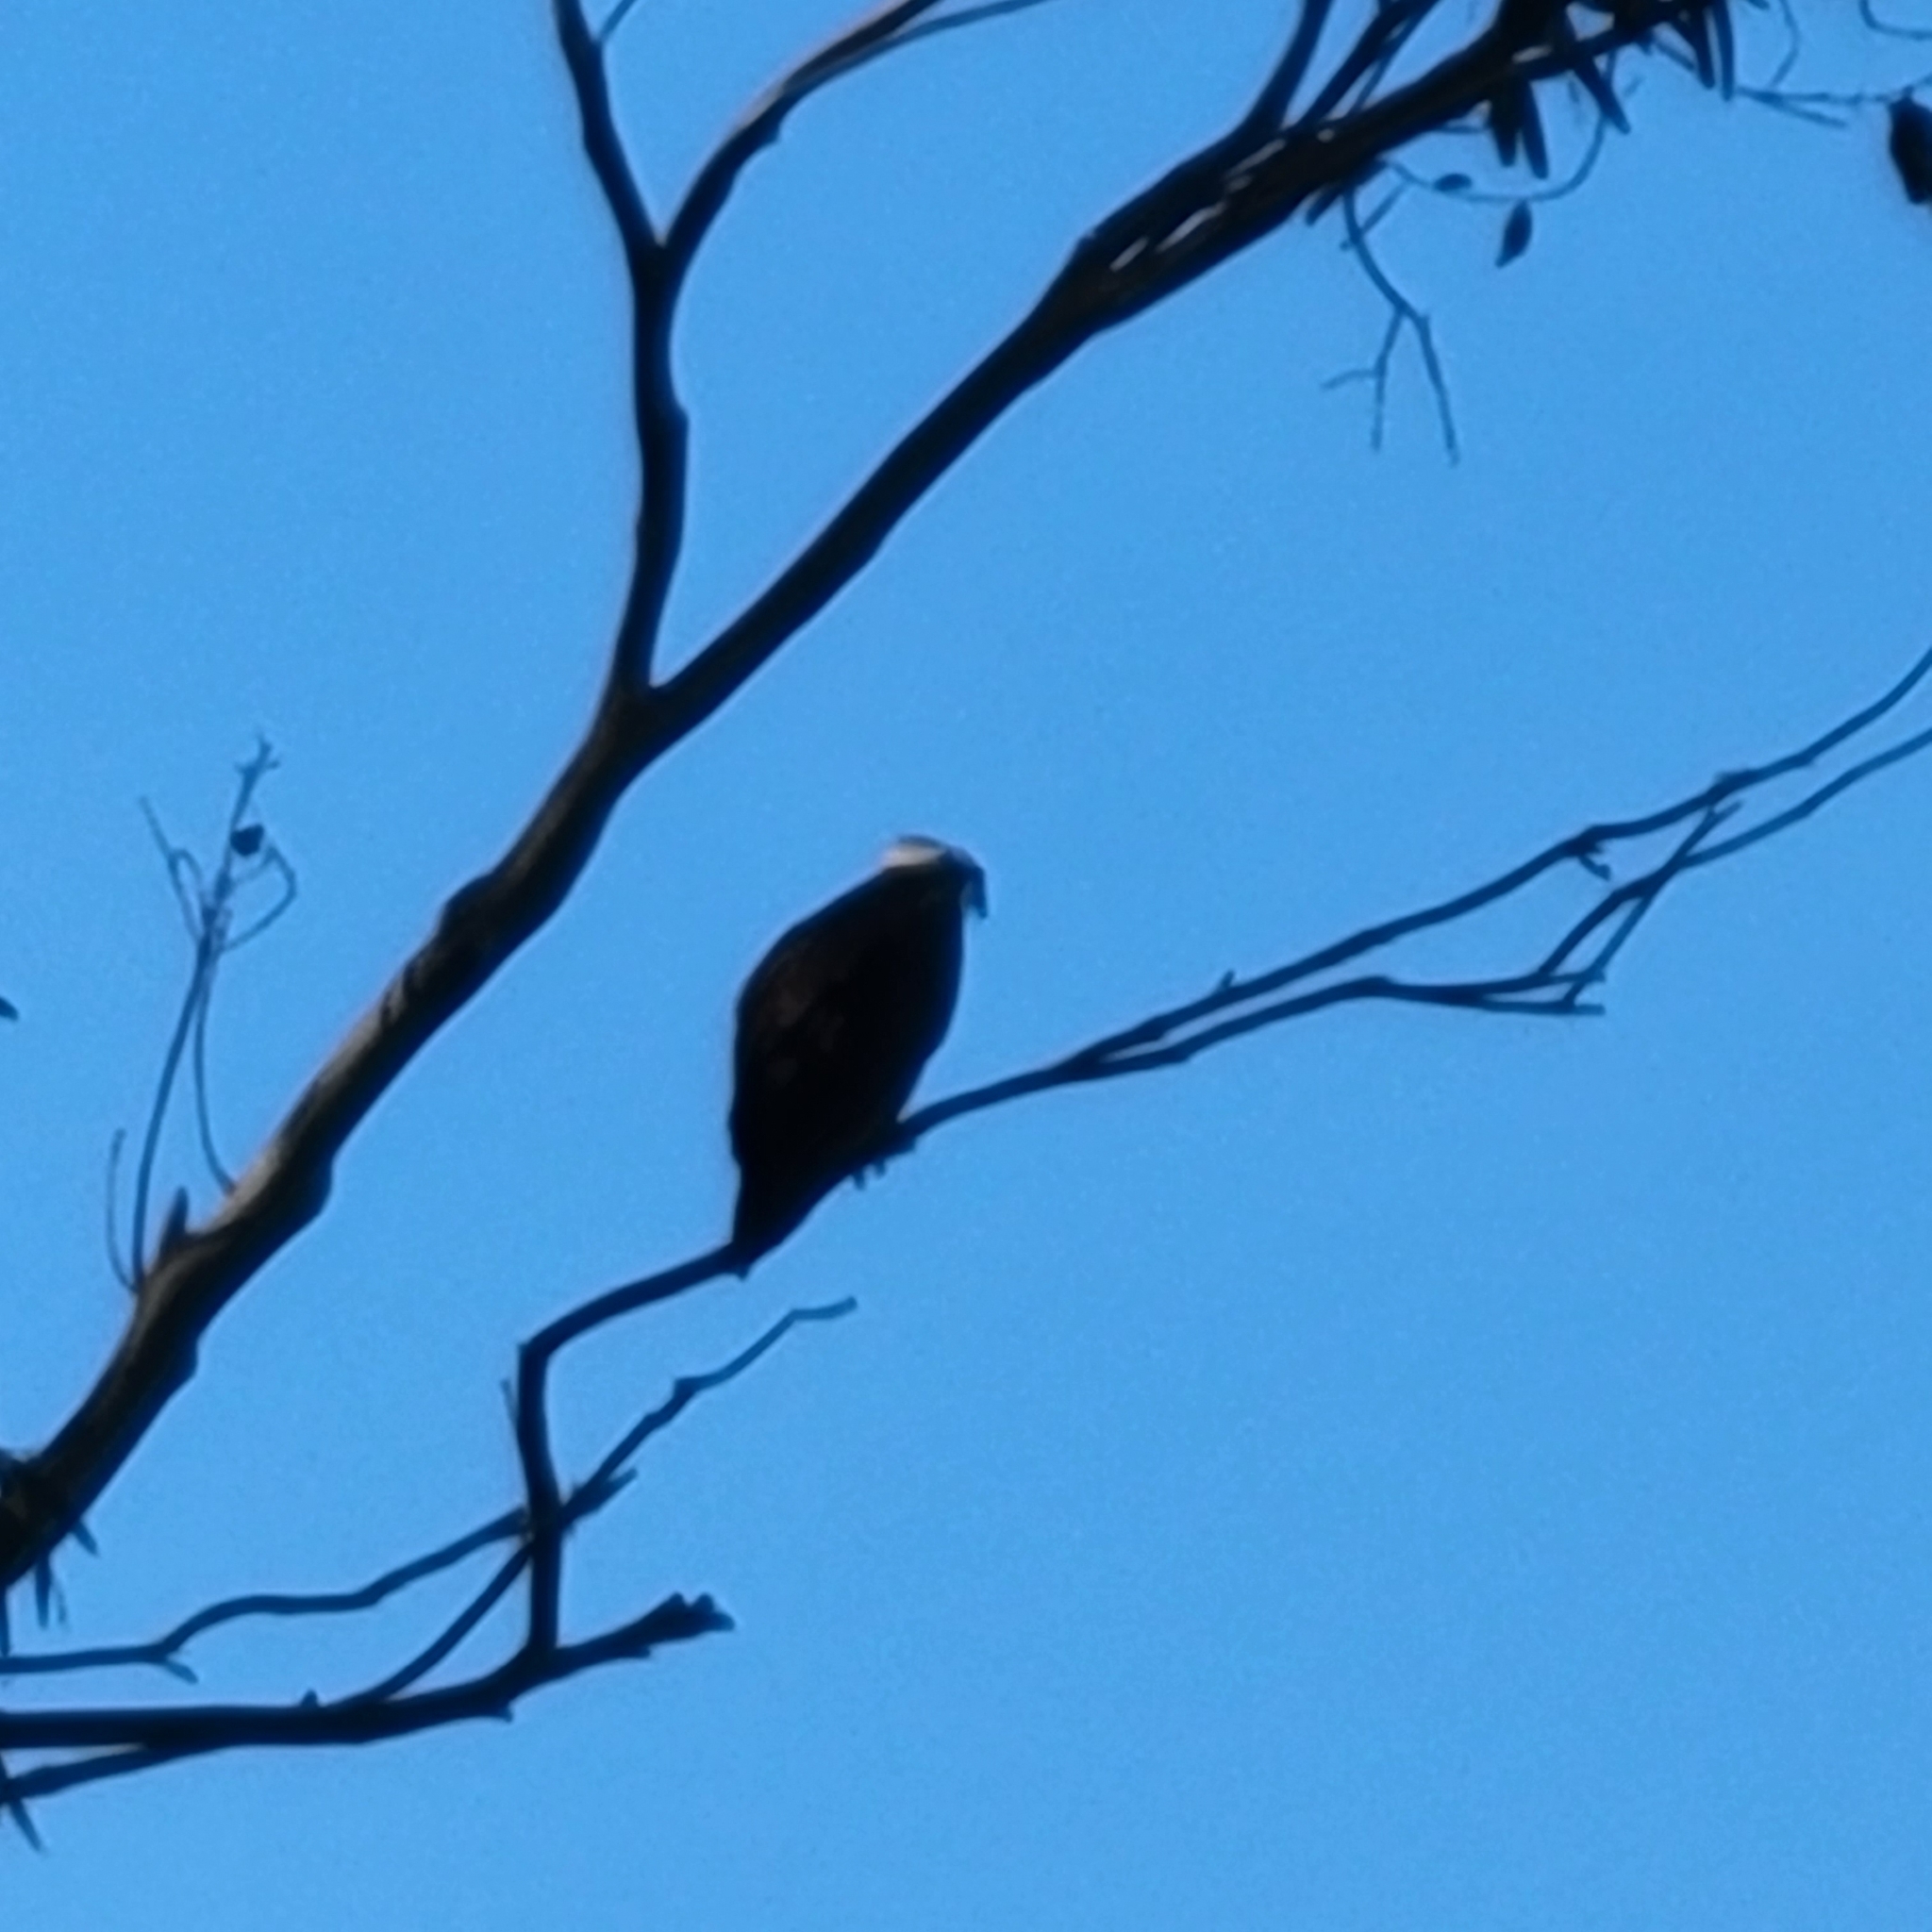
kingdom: Animalia
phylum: Chordata
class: Aves
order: Accipitriformes
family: Pandionidae
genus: Pandion
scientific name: Pandion haliaetus
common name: Osprey
